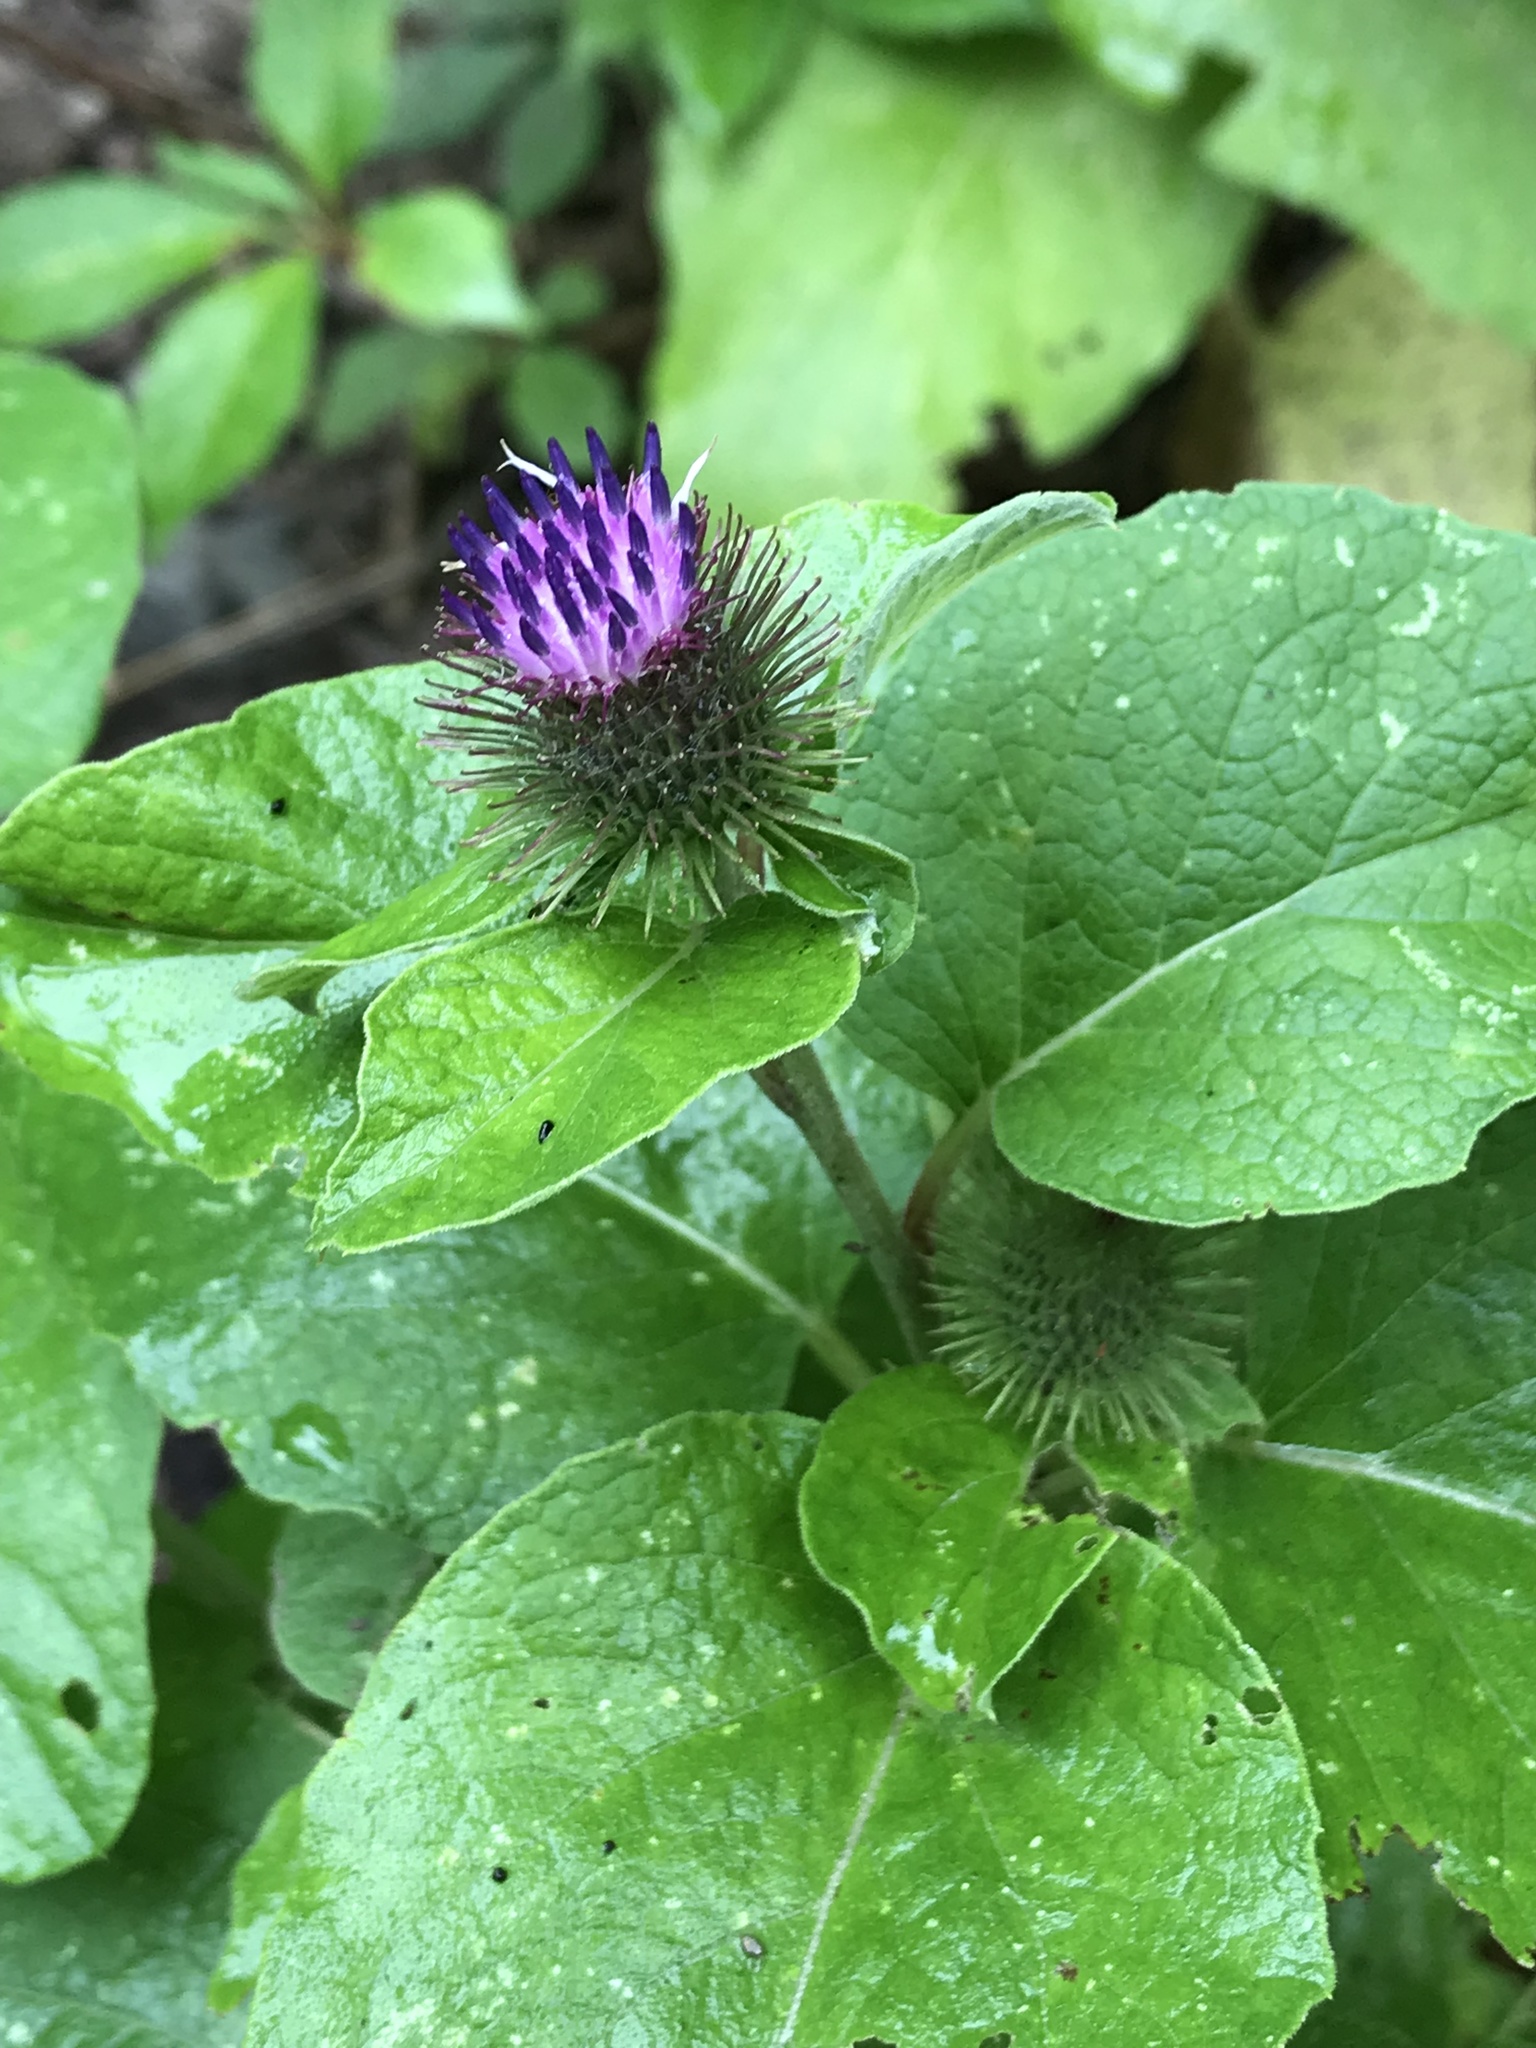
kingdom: Plantae
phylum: Tracheophyta
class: Magnoliopsida
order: Asterales
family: Asteraceae
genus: Arctium
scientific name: Arctium minus
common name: Lesser burdock
